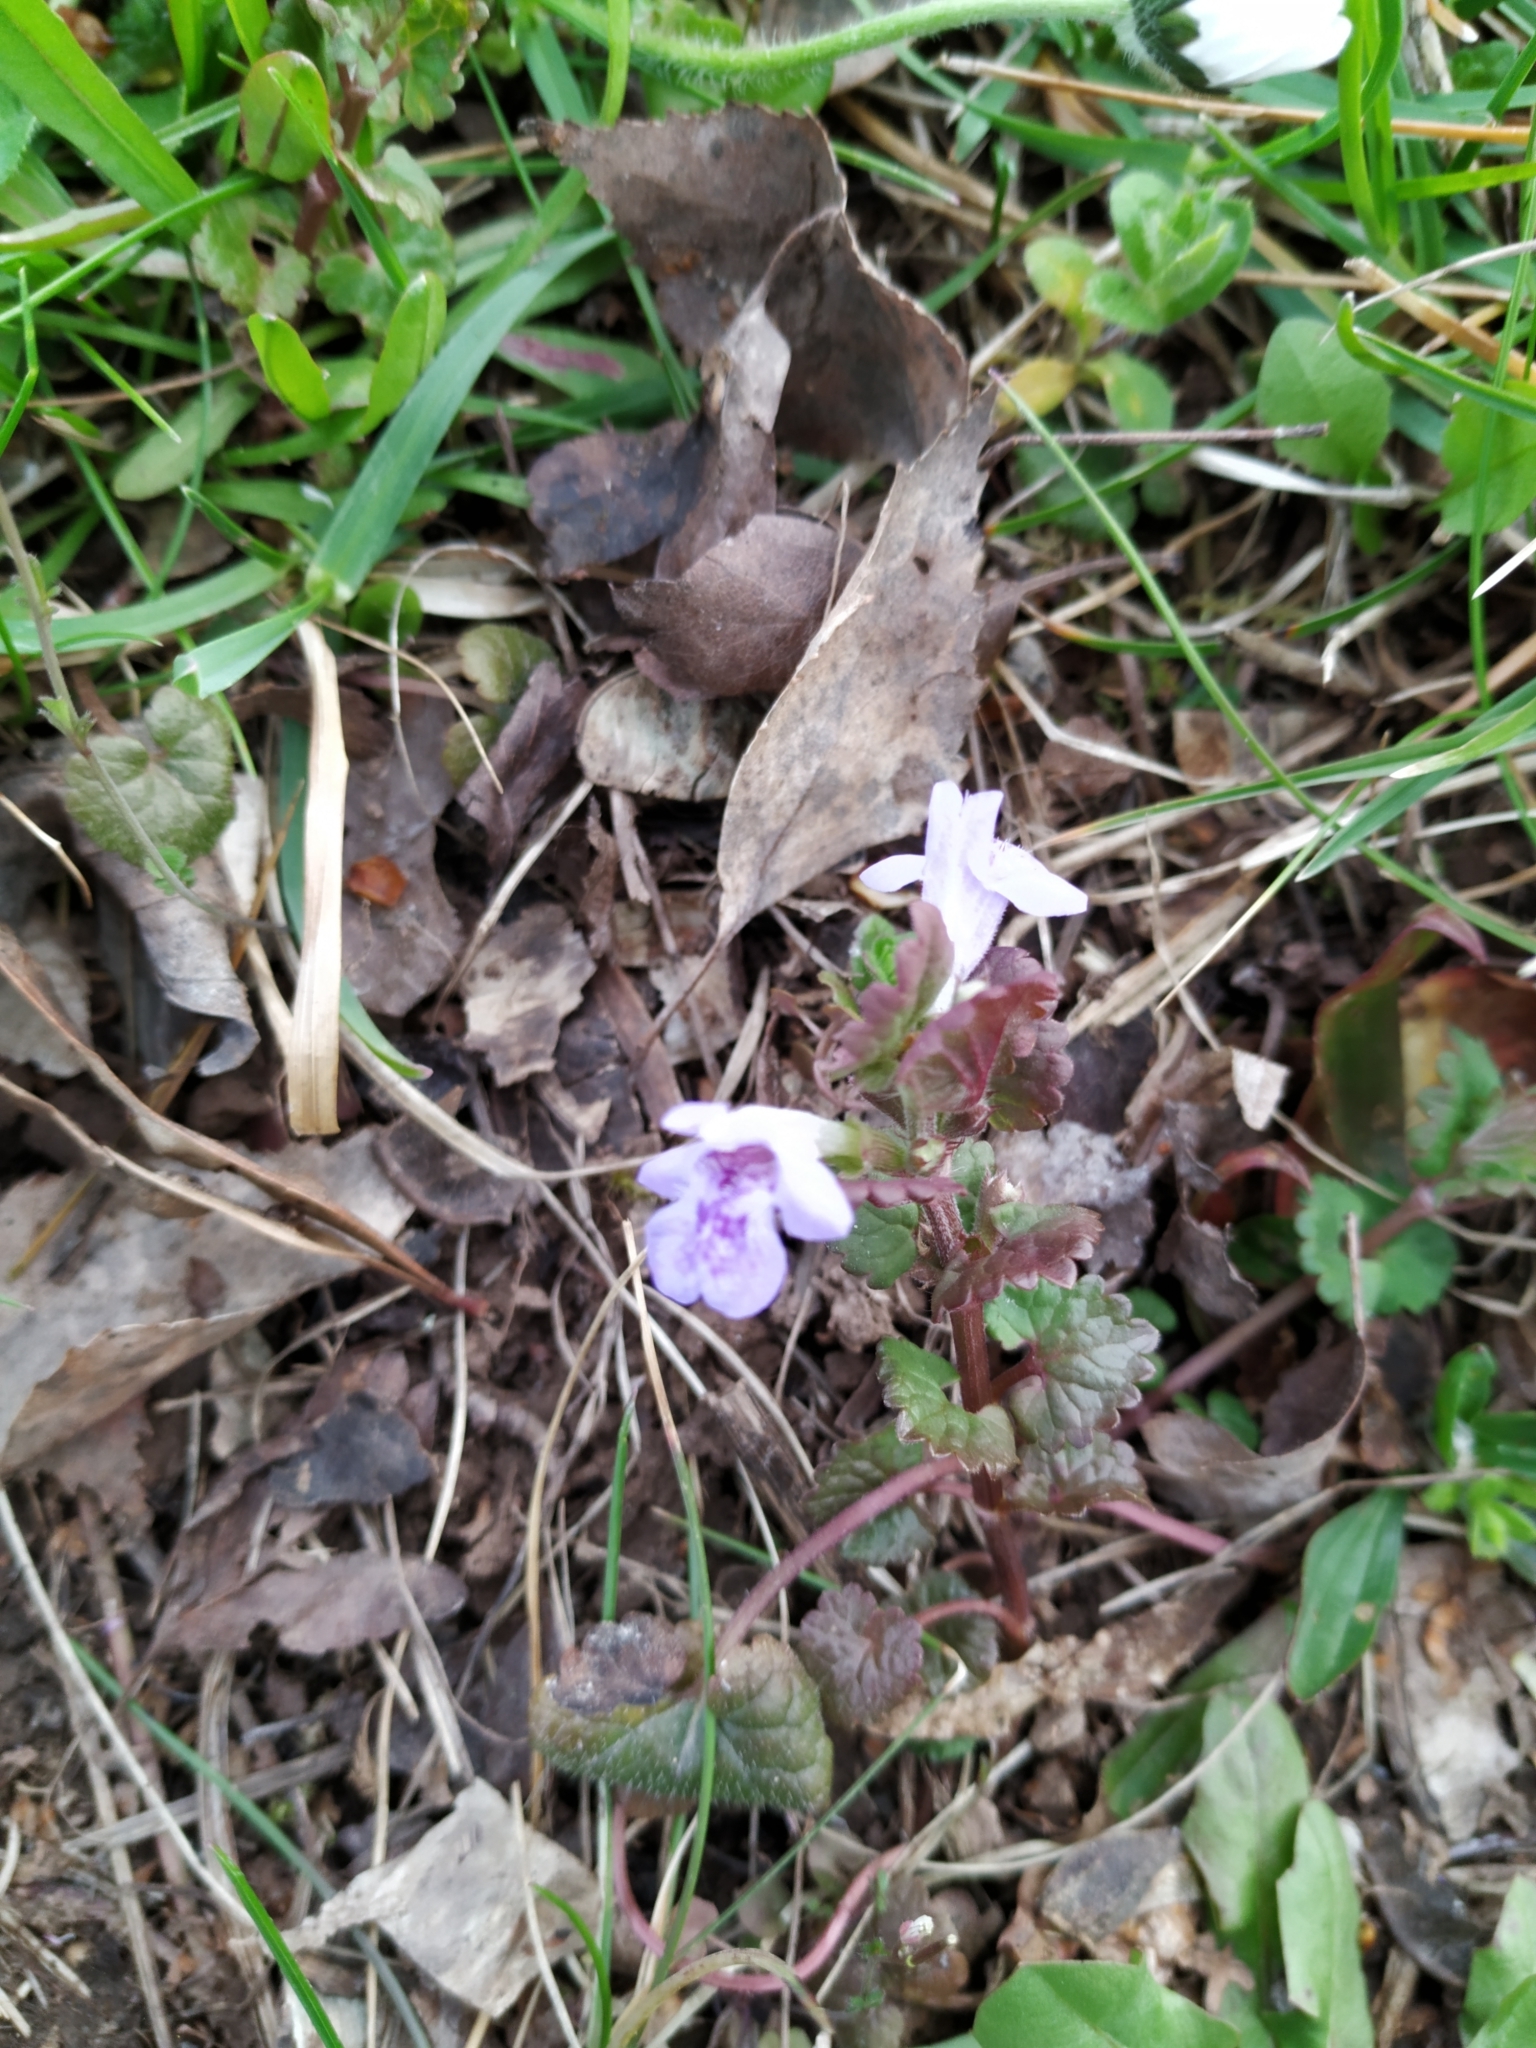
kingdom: Plantae
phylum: Tracheophyta
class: Magnoliopsida
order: Lamiales
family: Lamiaceae
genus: Glechoma
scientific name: Glechoma hederacea
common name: Ground ivy
